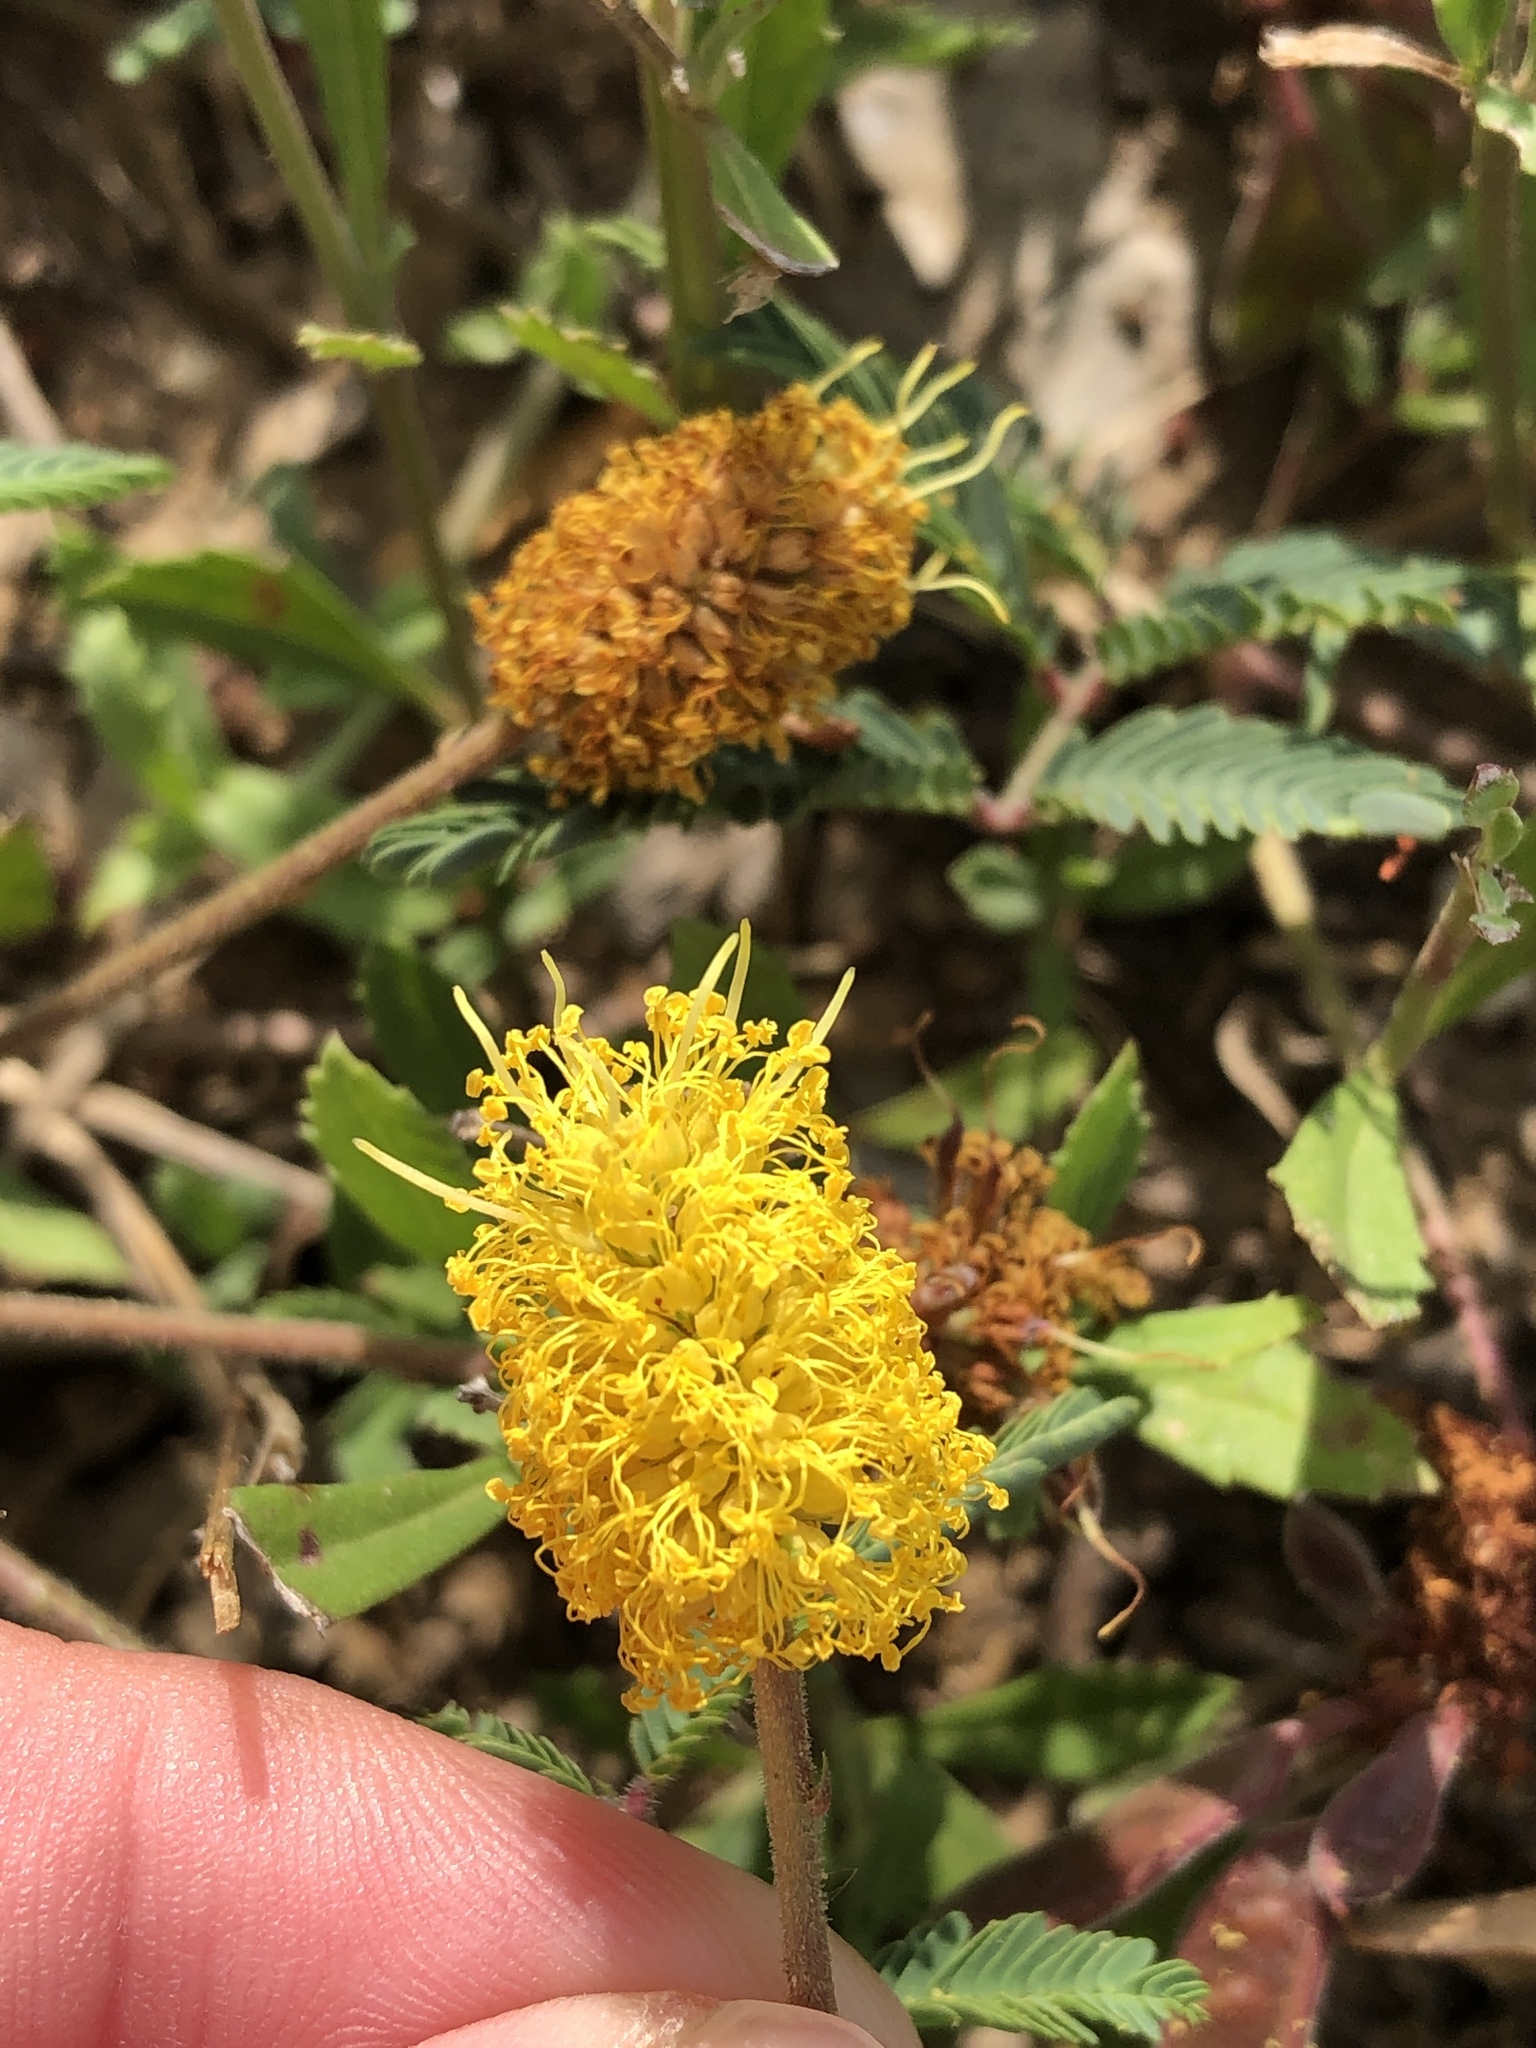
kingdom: Plantae
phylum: Tracheophyta
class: Magnoliopsida
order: Fabales
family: Fabaceae
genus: Neptunia
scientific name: Neptunia lutea
